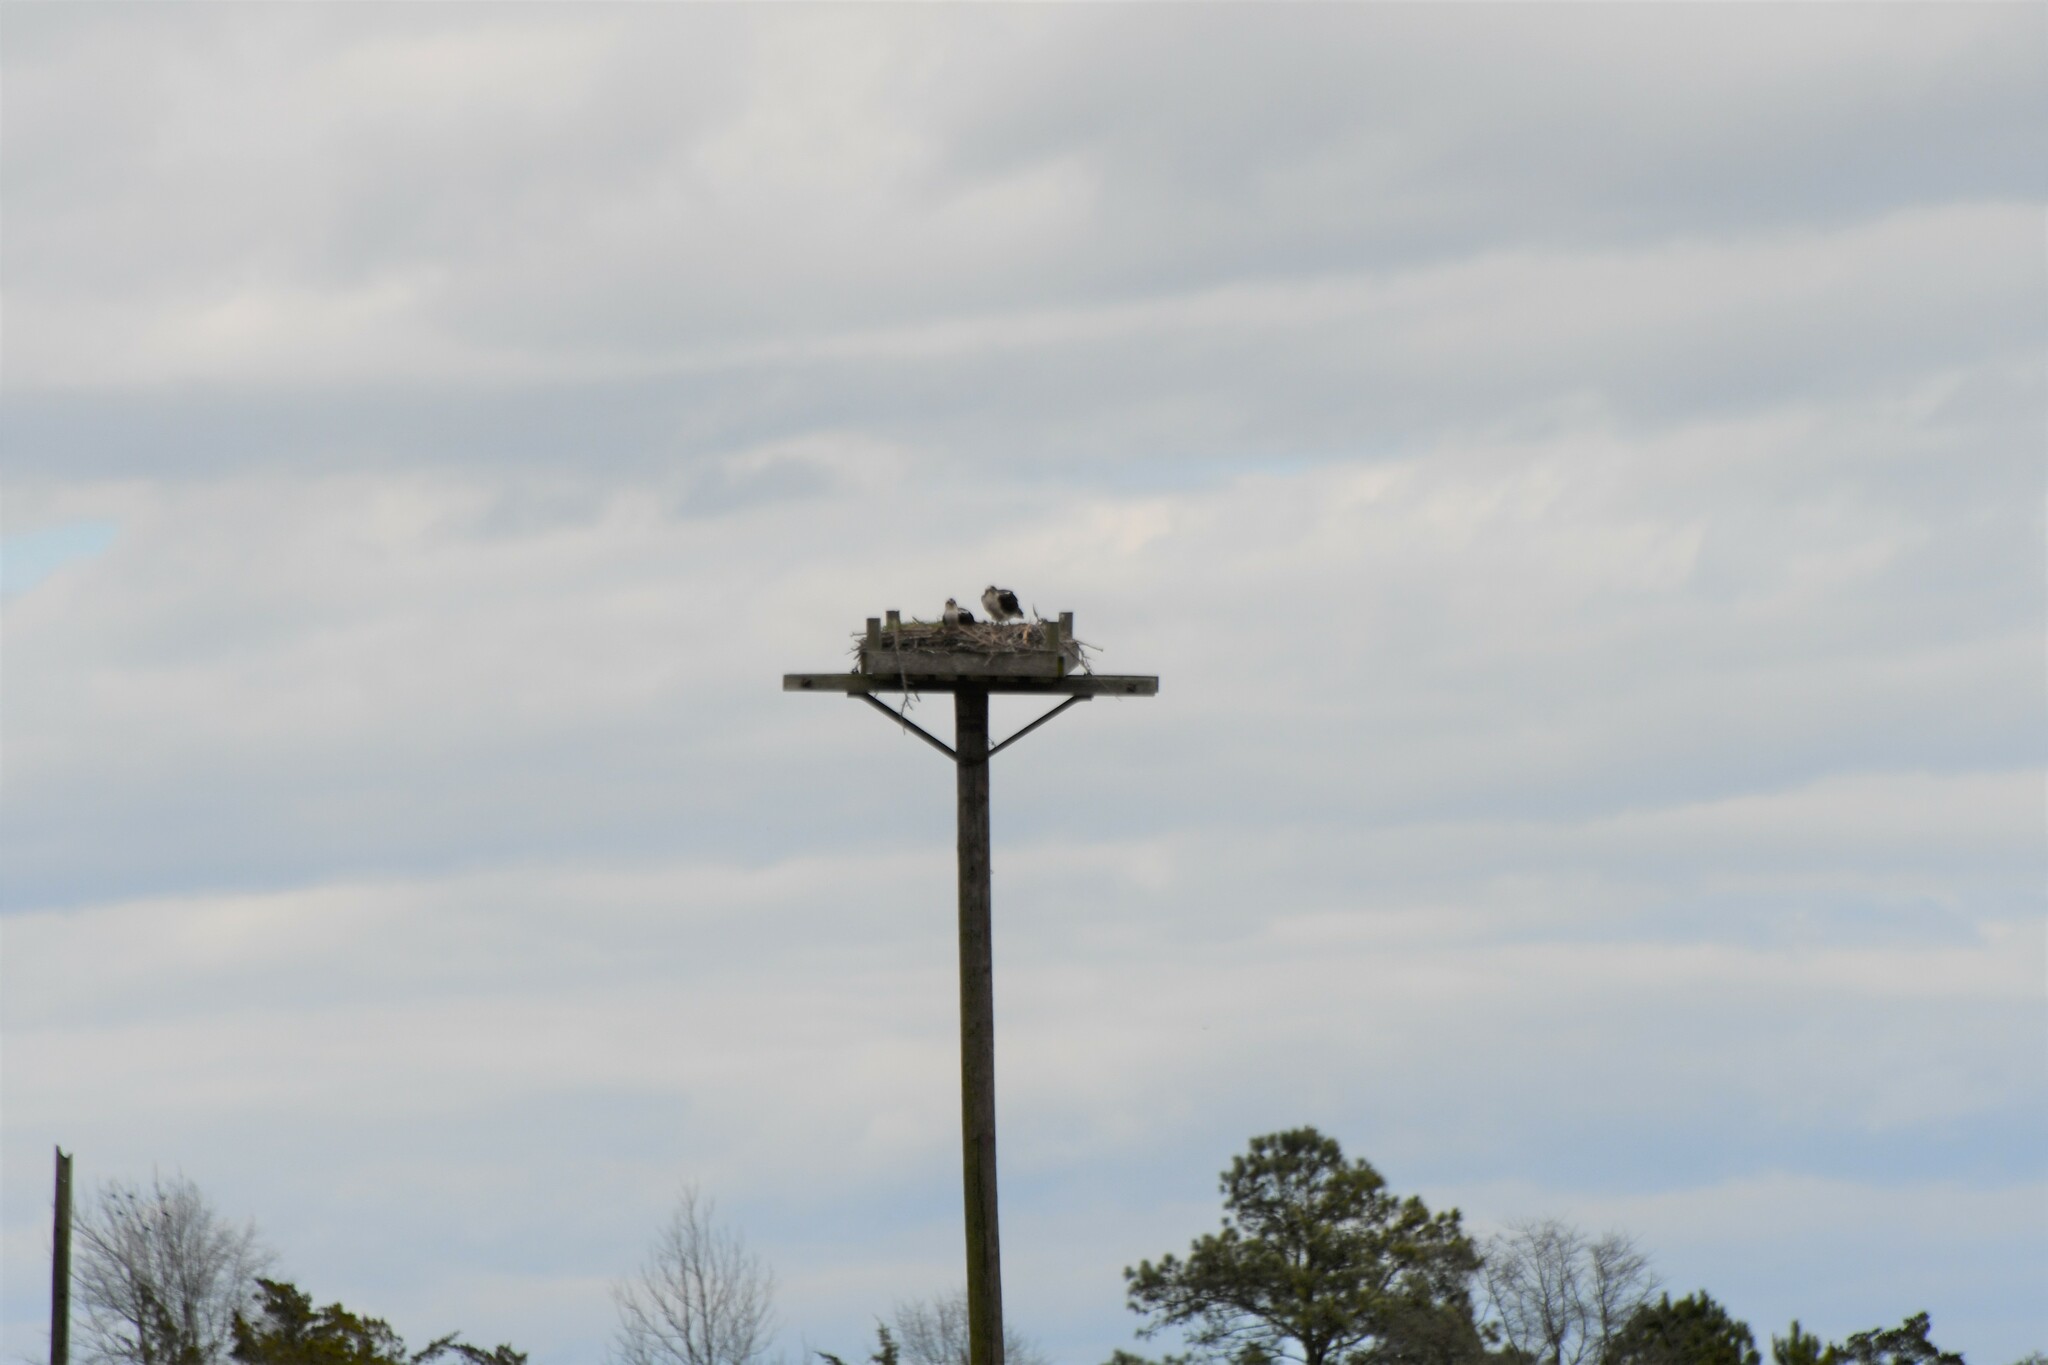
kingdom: Animalia
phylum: Chordata
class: Aves
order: Accipitriformes
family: Pandionidae
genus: Pandion
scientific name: Pandion haliaetus
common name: Osprey
